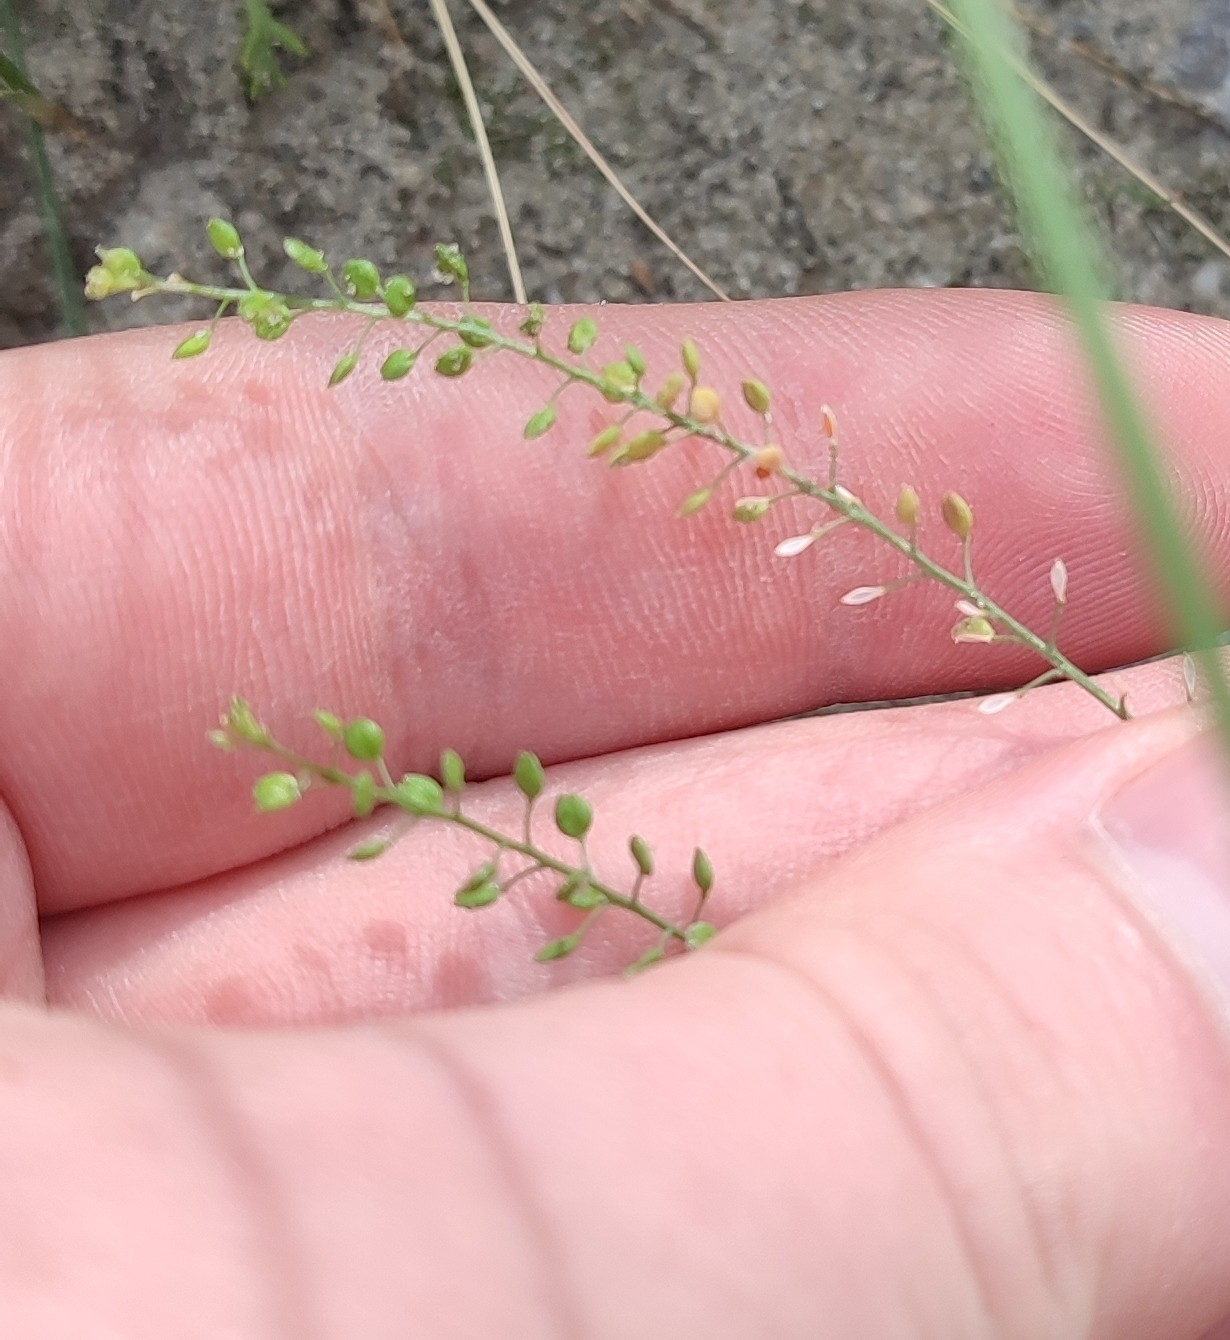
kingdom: Plantae
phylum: Tracheophyta
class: Magnoliopsida
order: Brassicales
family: Brassicaceae
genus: Lepidium
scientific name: Lepidium densiflorum
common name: Miner's pepperwort
